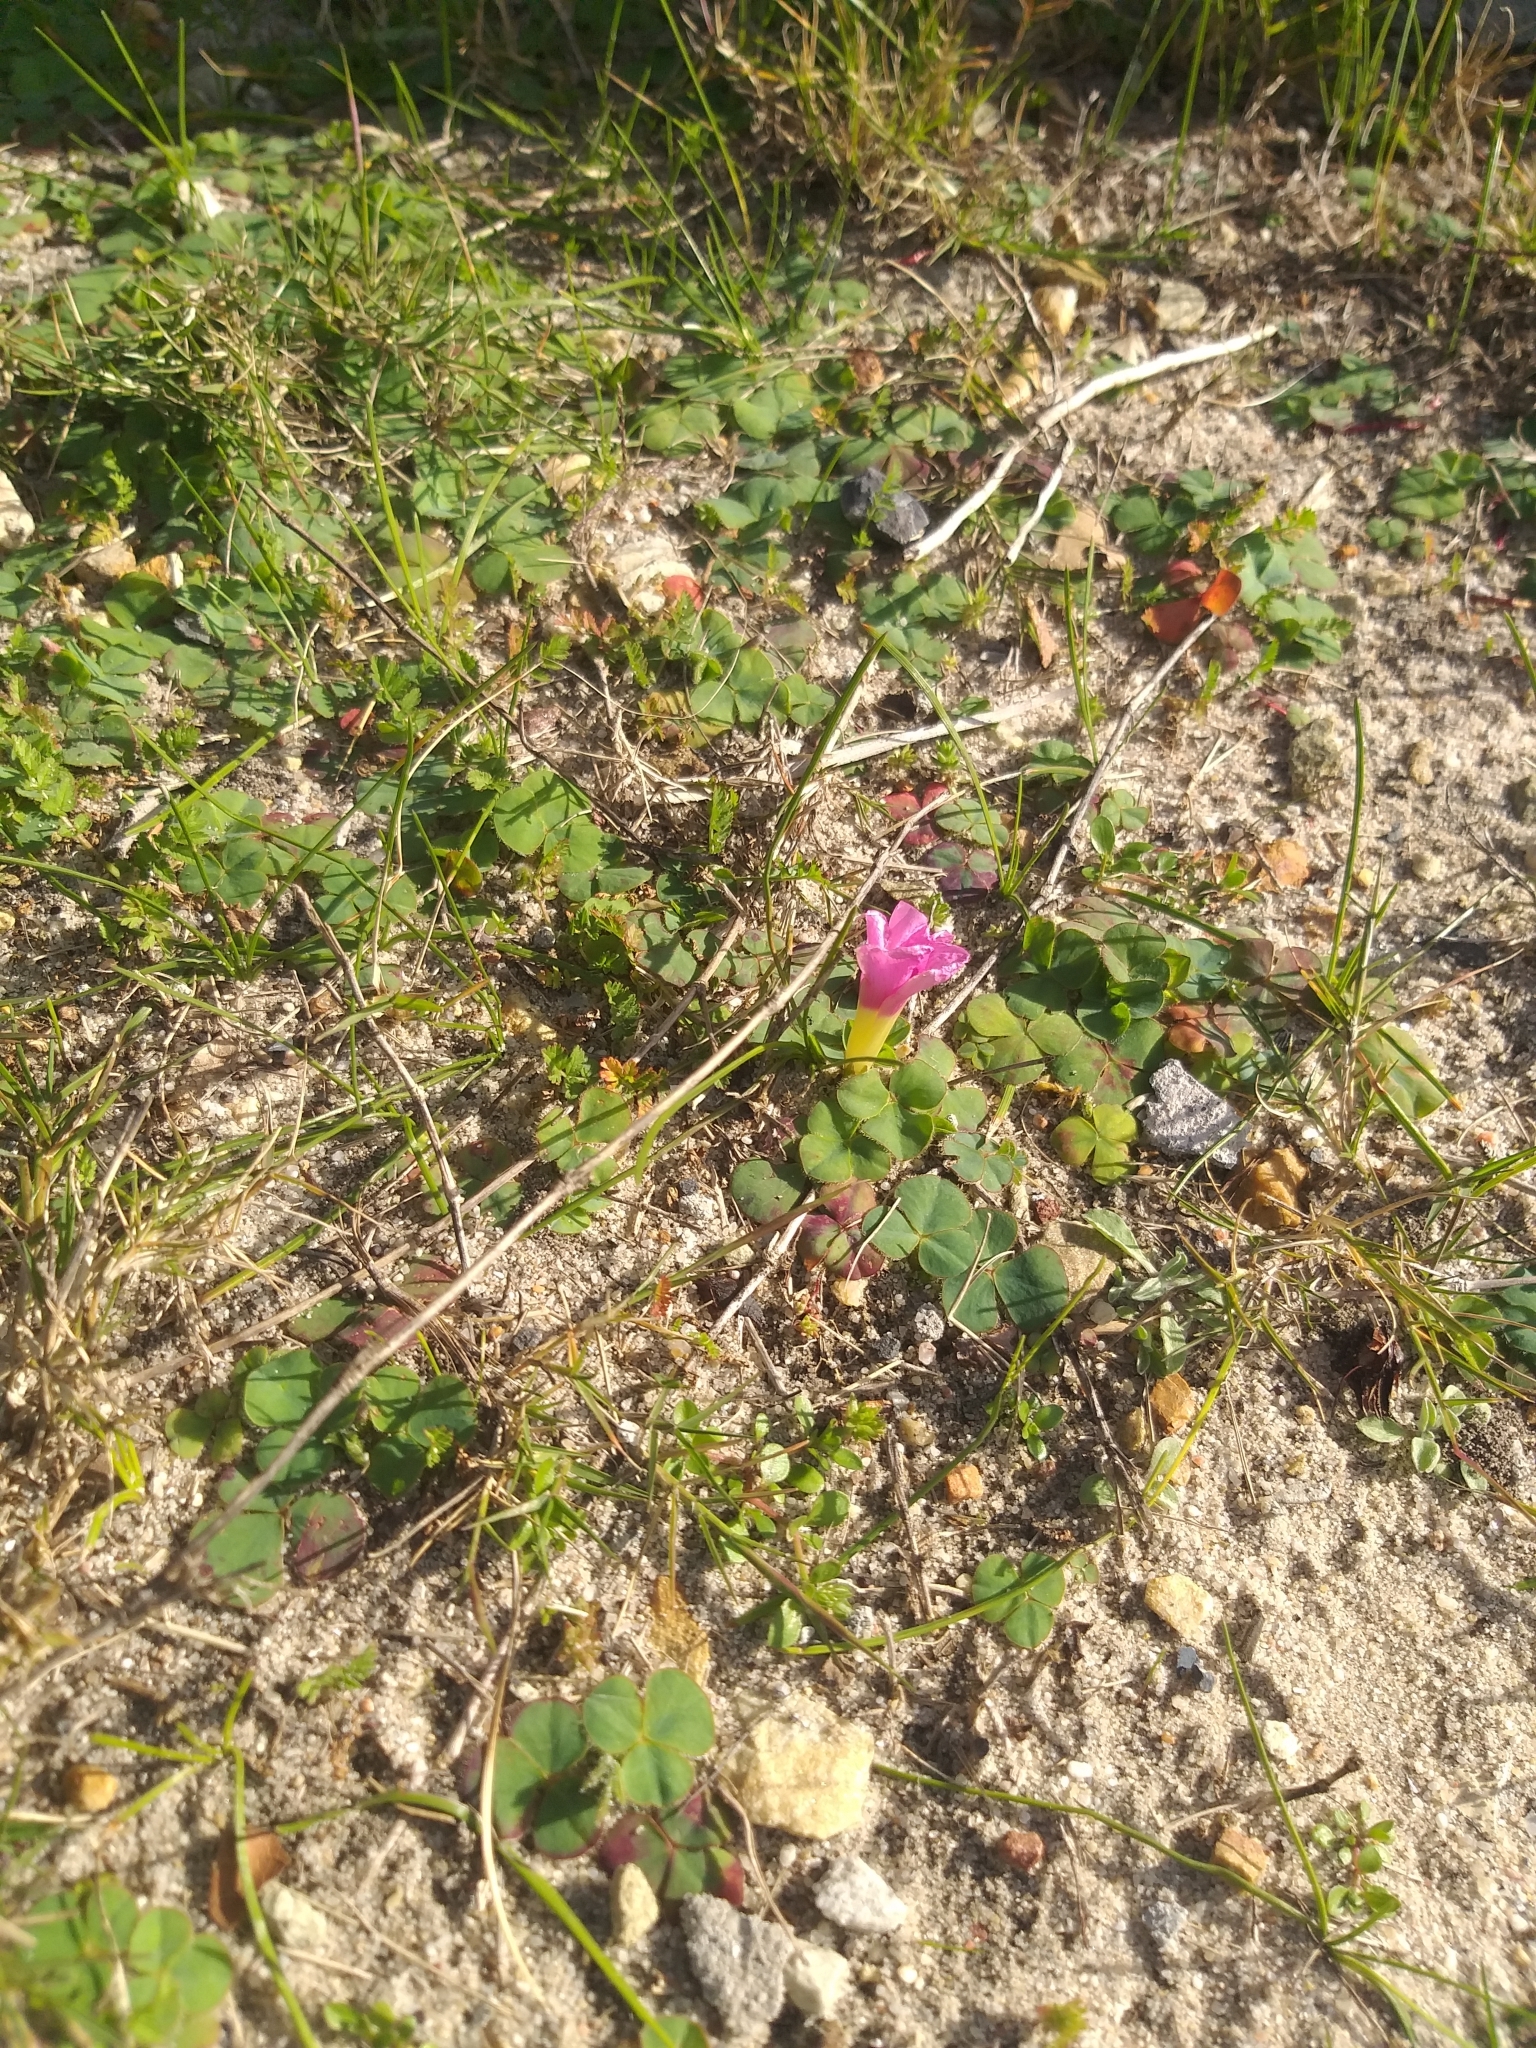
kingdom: Plantae
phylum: Tracheophyta
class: Magnoliopsida
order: Oxalidales
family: Oxalidaceae
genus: Oxalis
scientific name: Oxalis purpurea
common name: Purple woodsorrel
